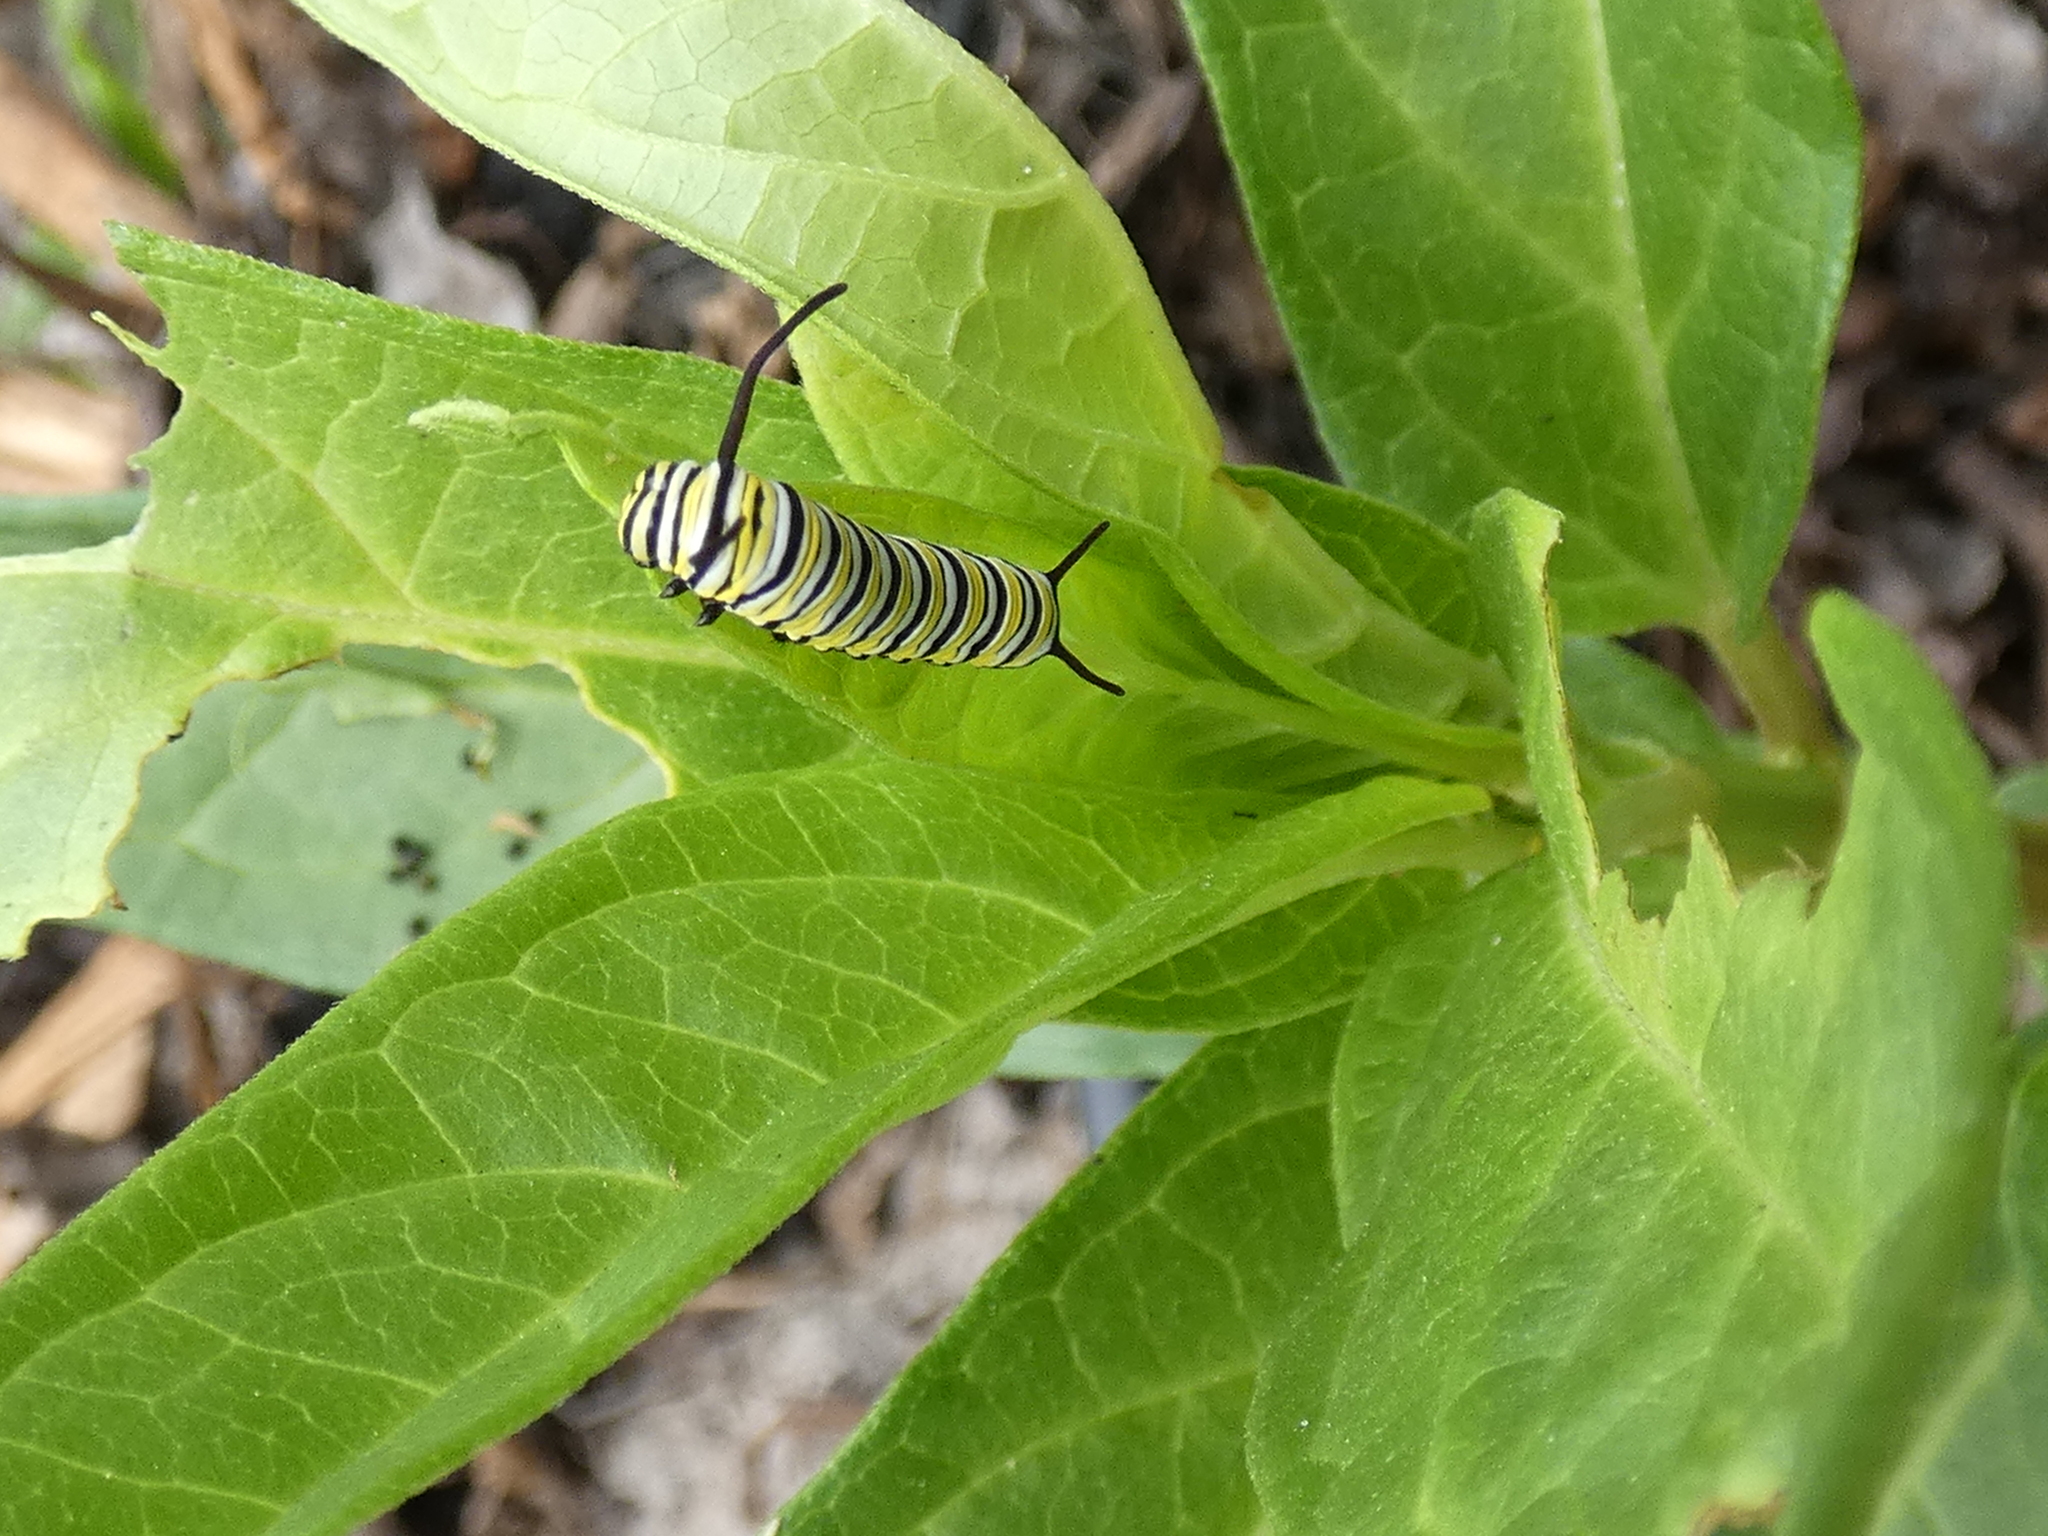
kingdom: Animalia
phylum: Arthropoda
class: Insecta
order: Lepidoptera
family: Nymphalidae
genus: Danaus
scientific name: Danaus plexippus
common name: Monarch
